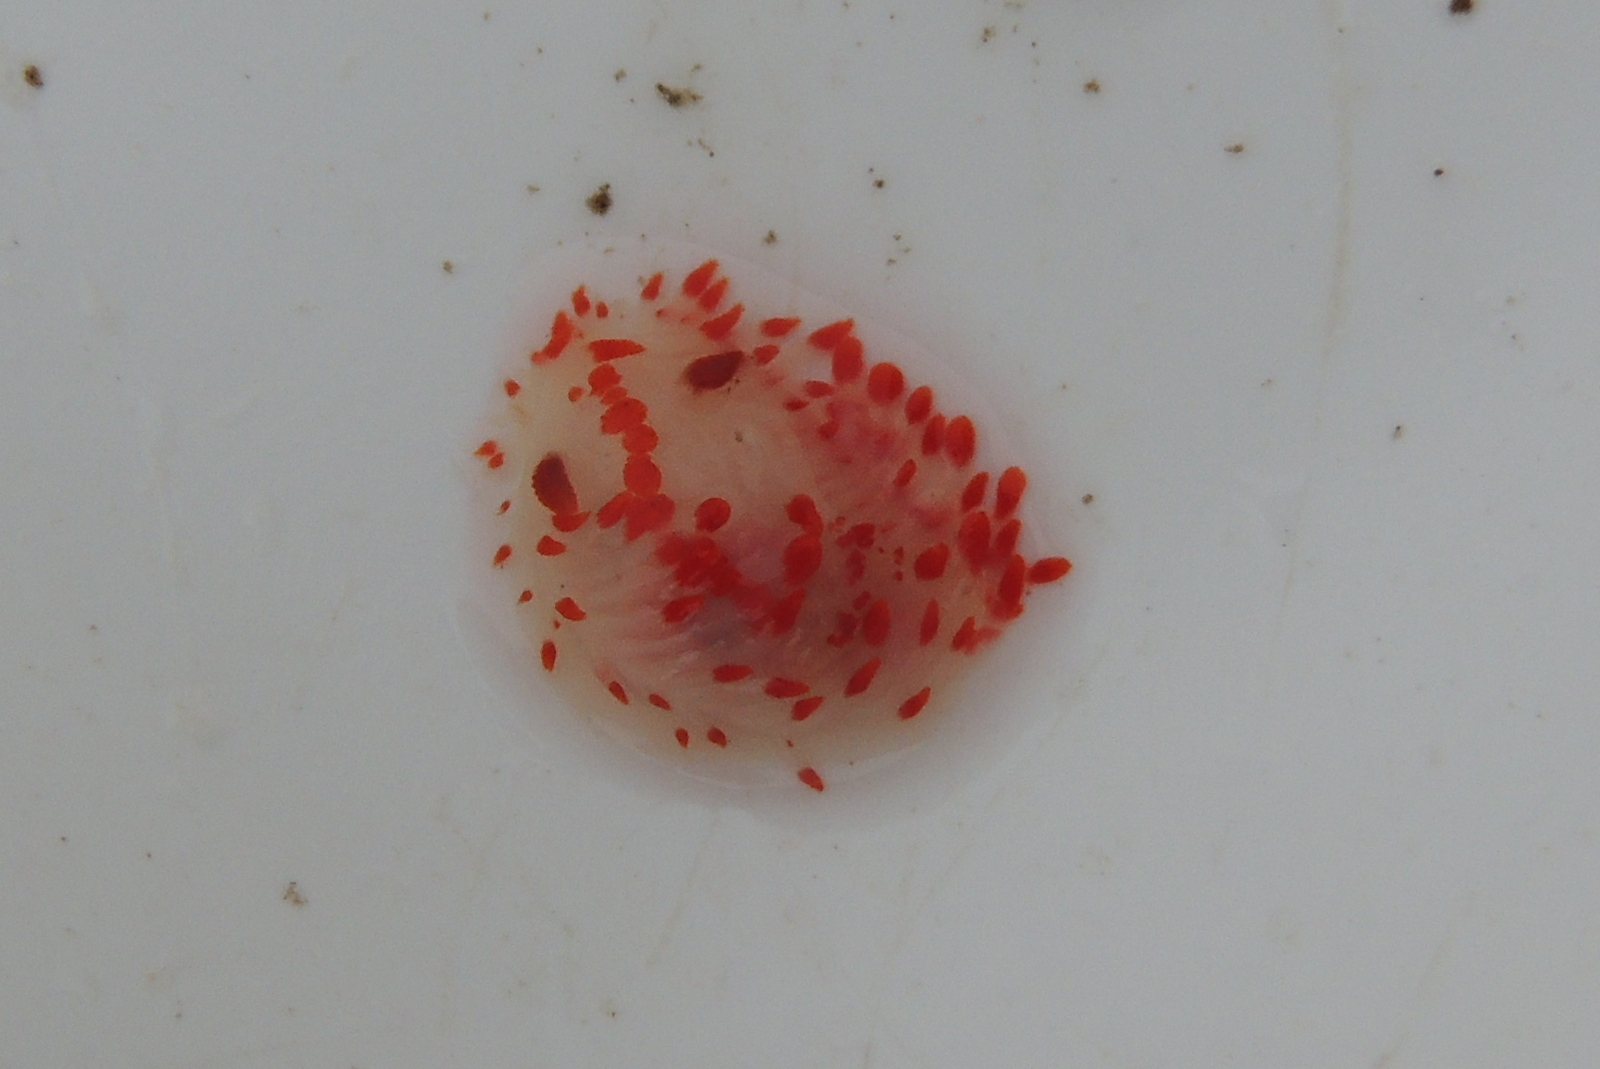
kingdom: Animalia
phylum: Mollusca
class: Gastropoda
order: Nudibranchia
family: Polyceridae
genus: Limacia
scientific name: Limacia mcdonaldi
